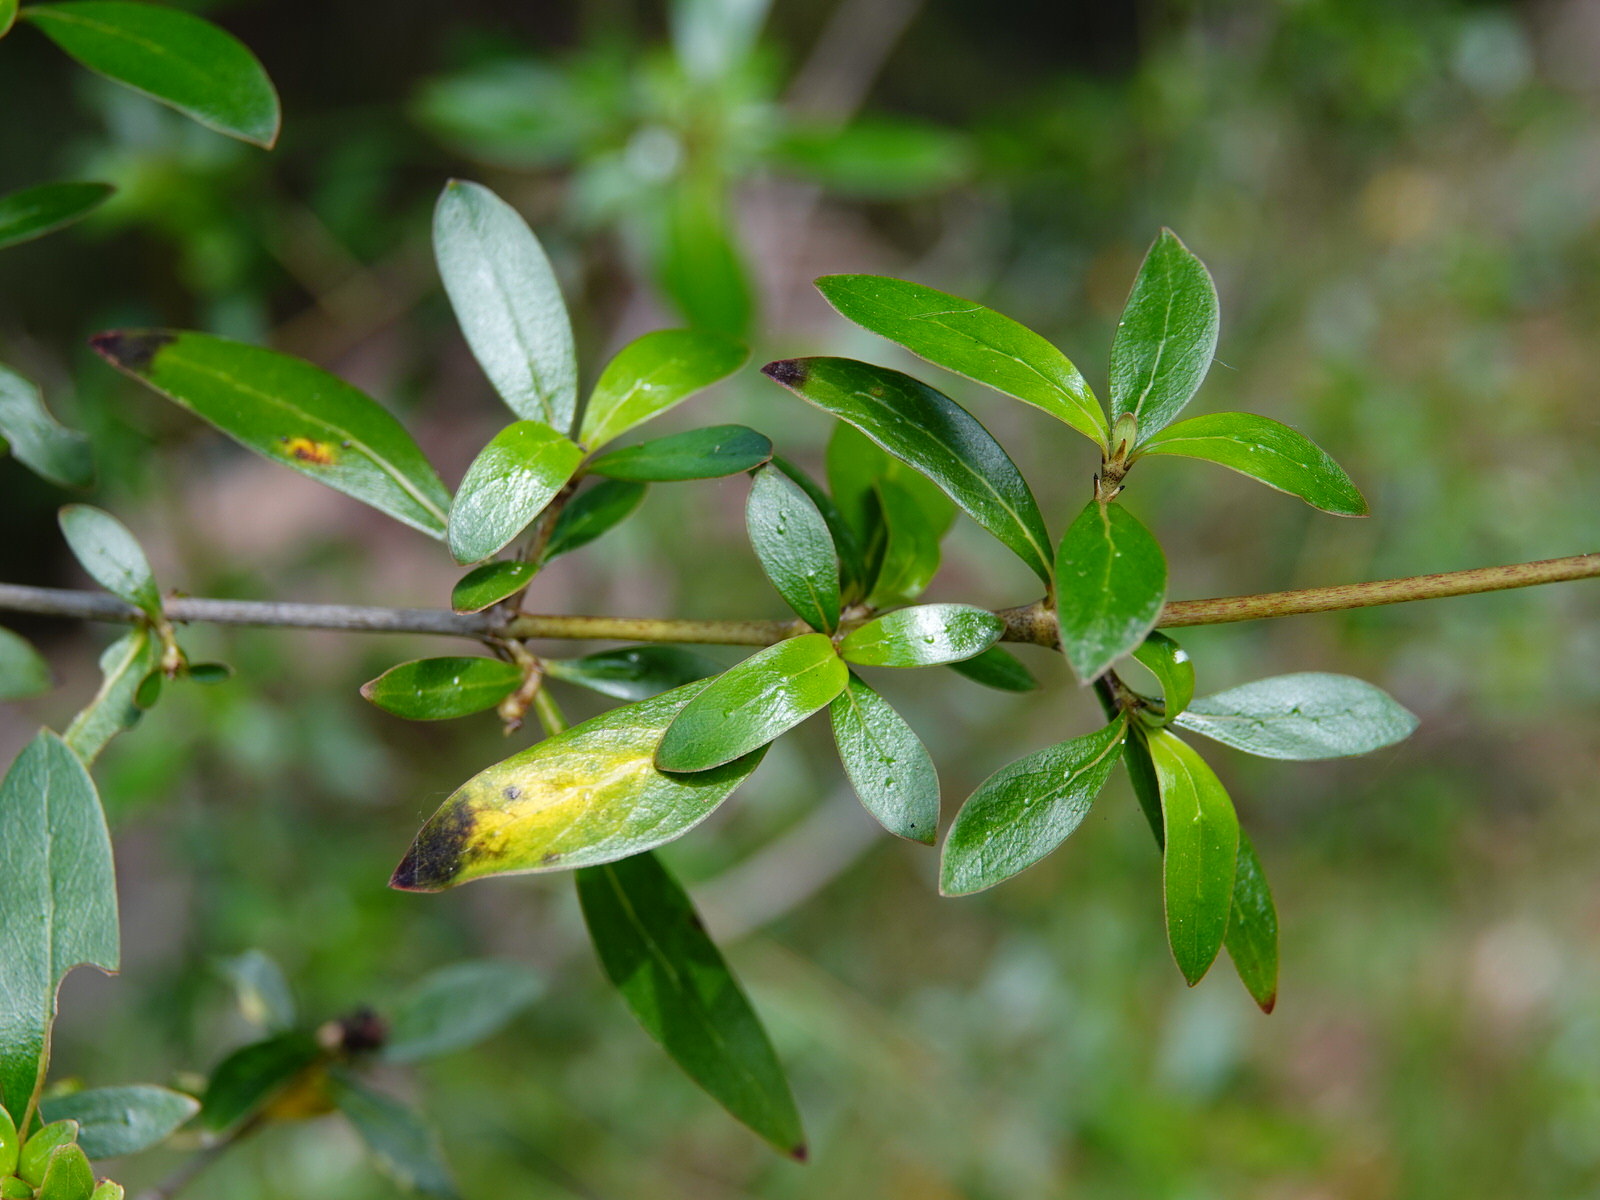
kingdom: Plantae
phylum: Tracheophyta
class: Magnoliopsida
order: Gentianales
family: Rubiaceae
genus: Coprosma
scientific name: Coprosma cunninghamii
